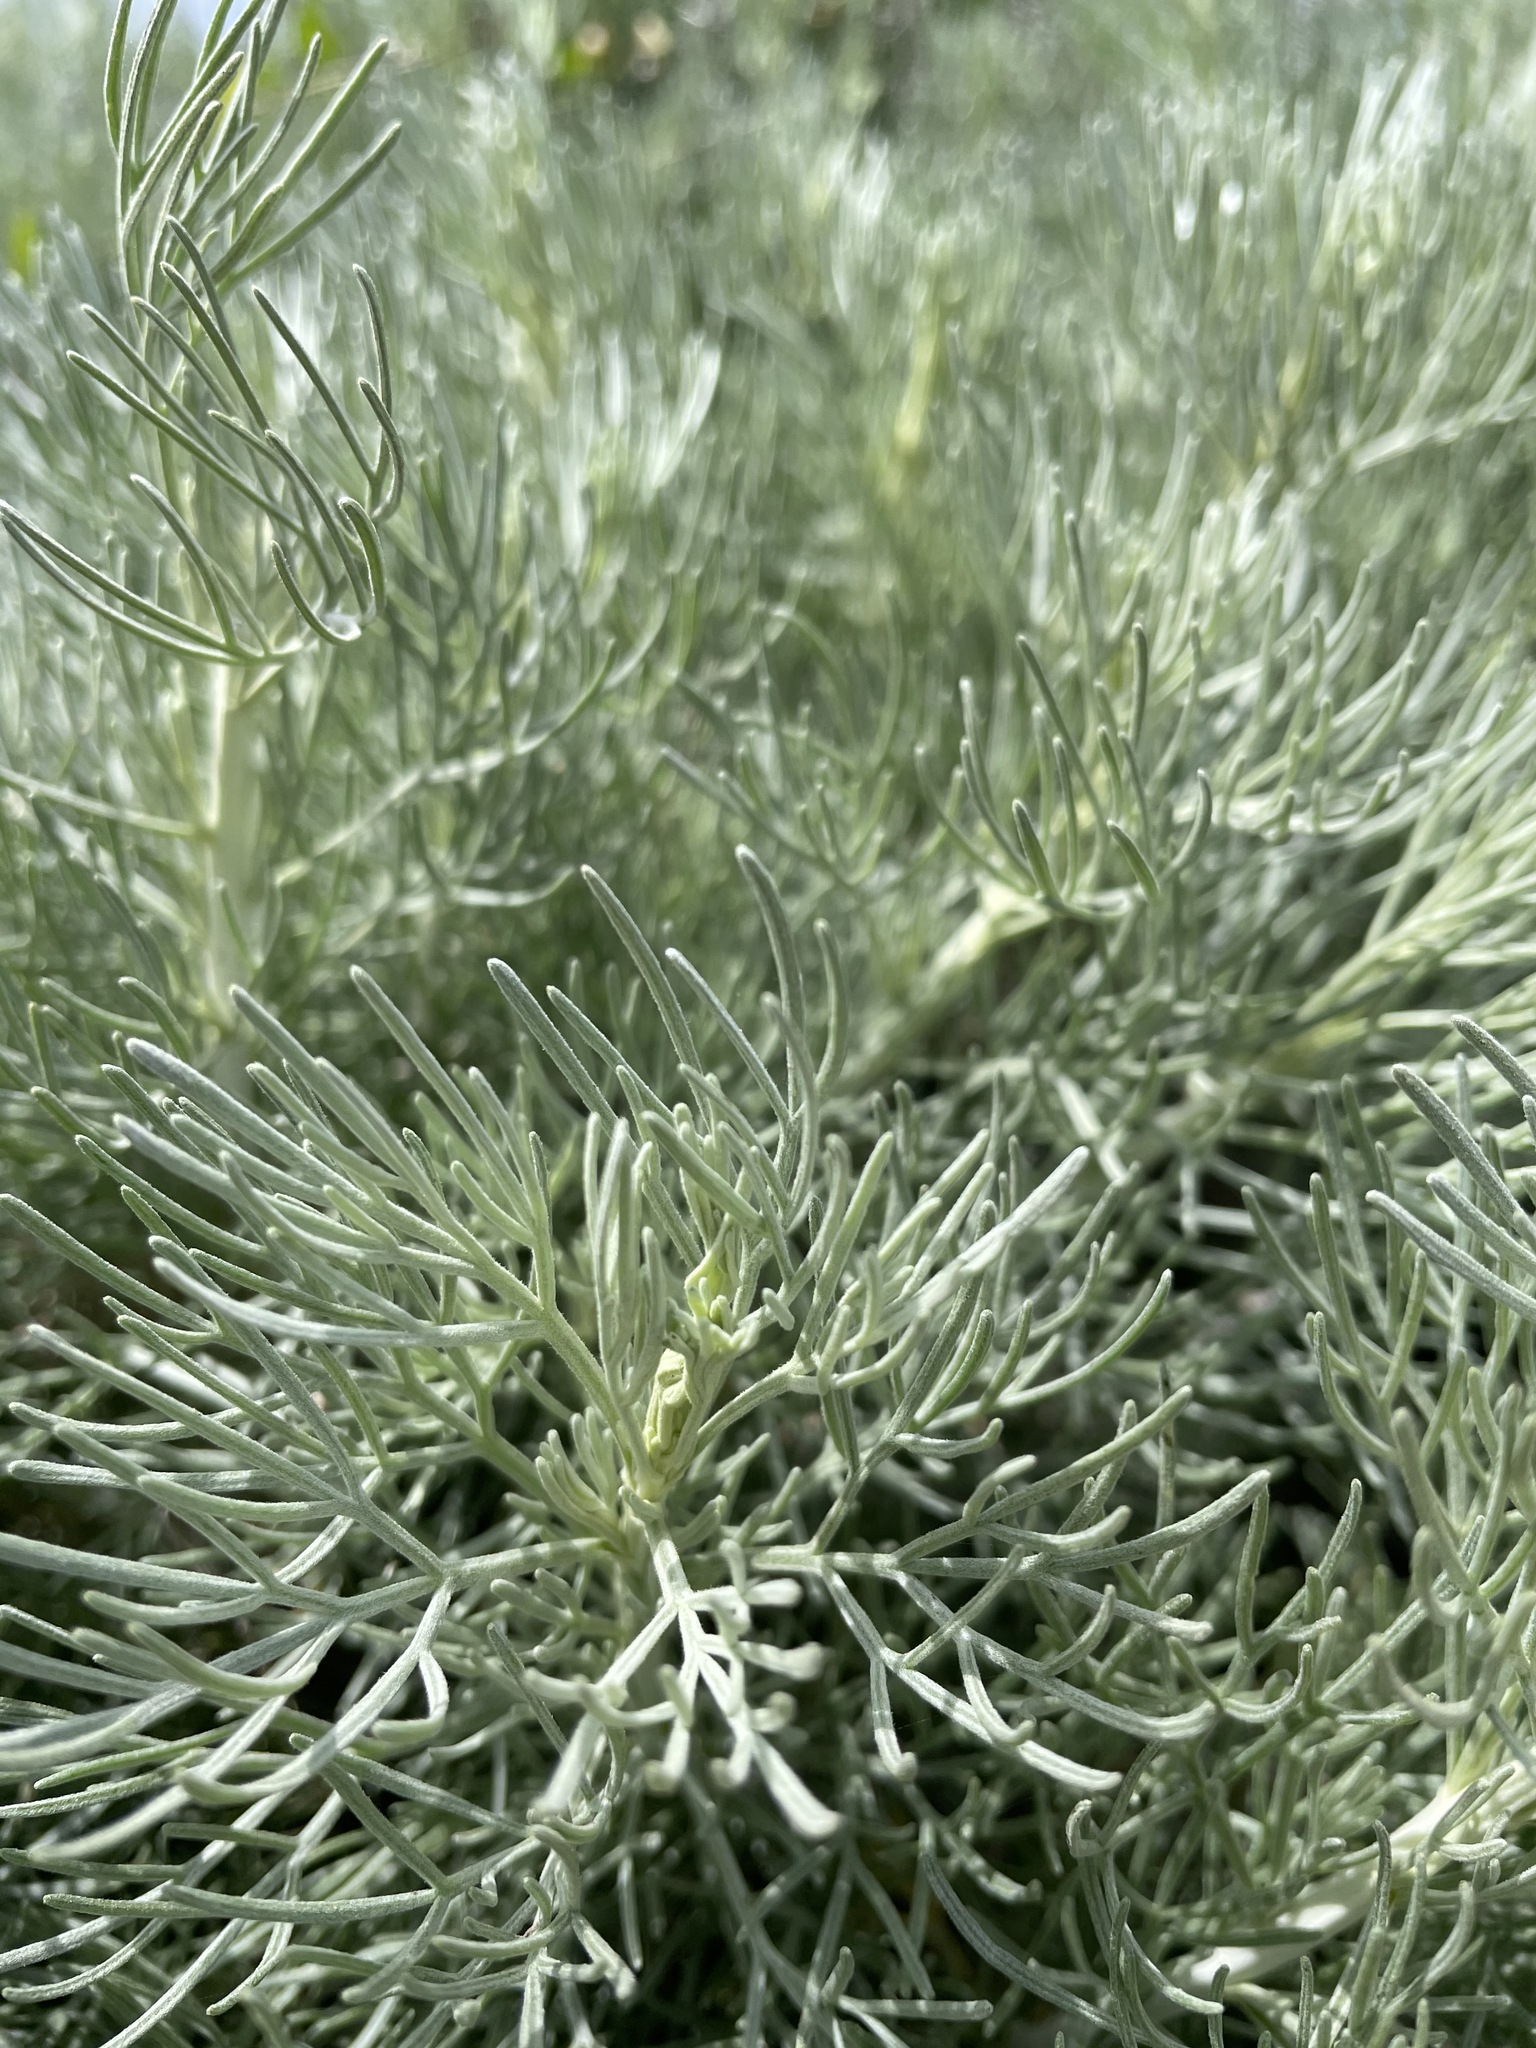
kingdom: Plantae
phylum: Tracheophyta
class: Magnoliopsida
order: Asterales
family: Asteraceae
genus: Artemisia
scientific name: Artemisia californica
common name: California sagebrush
